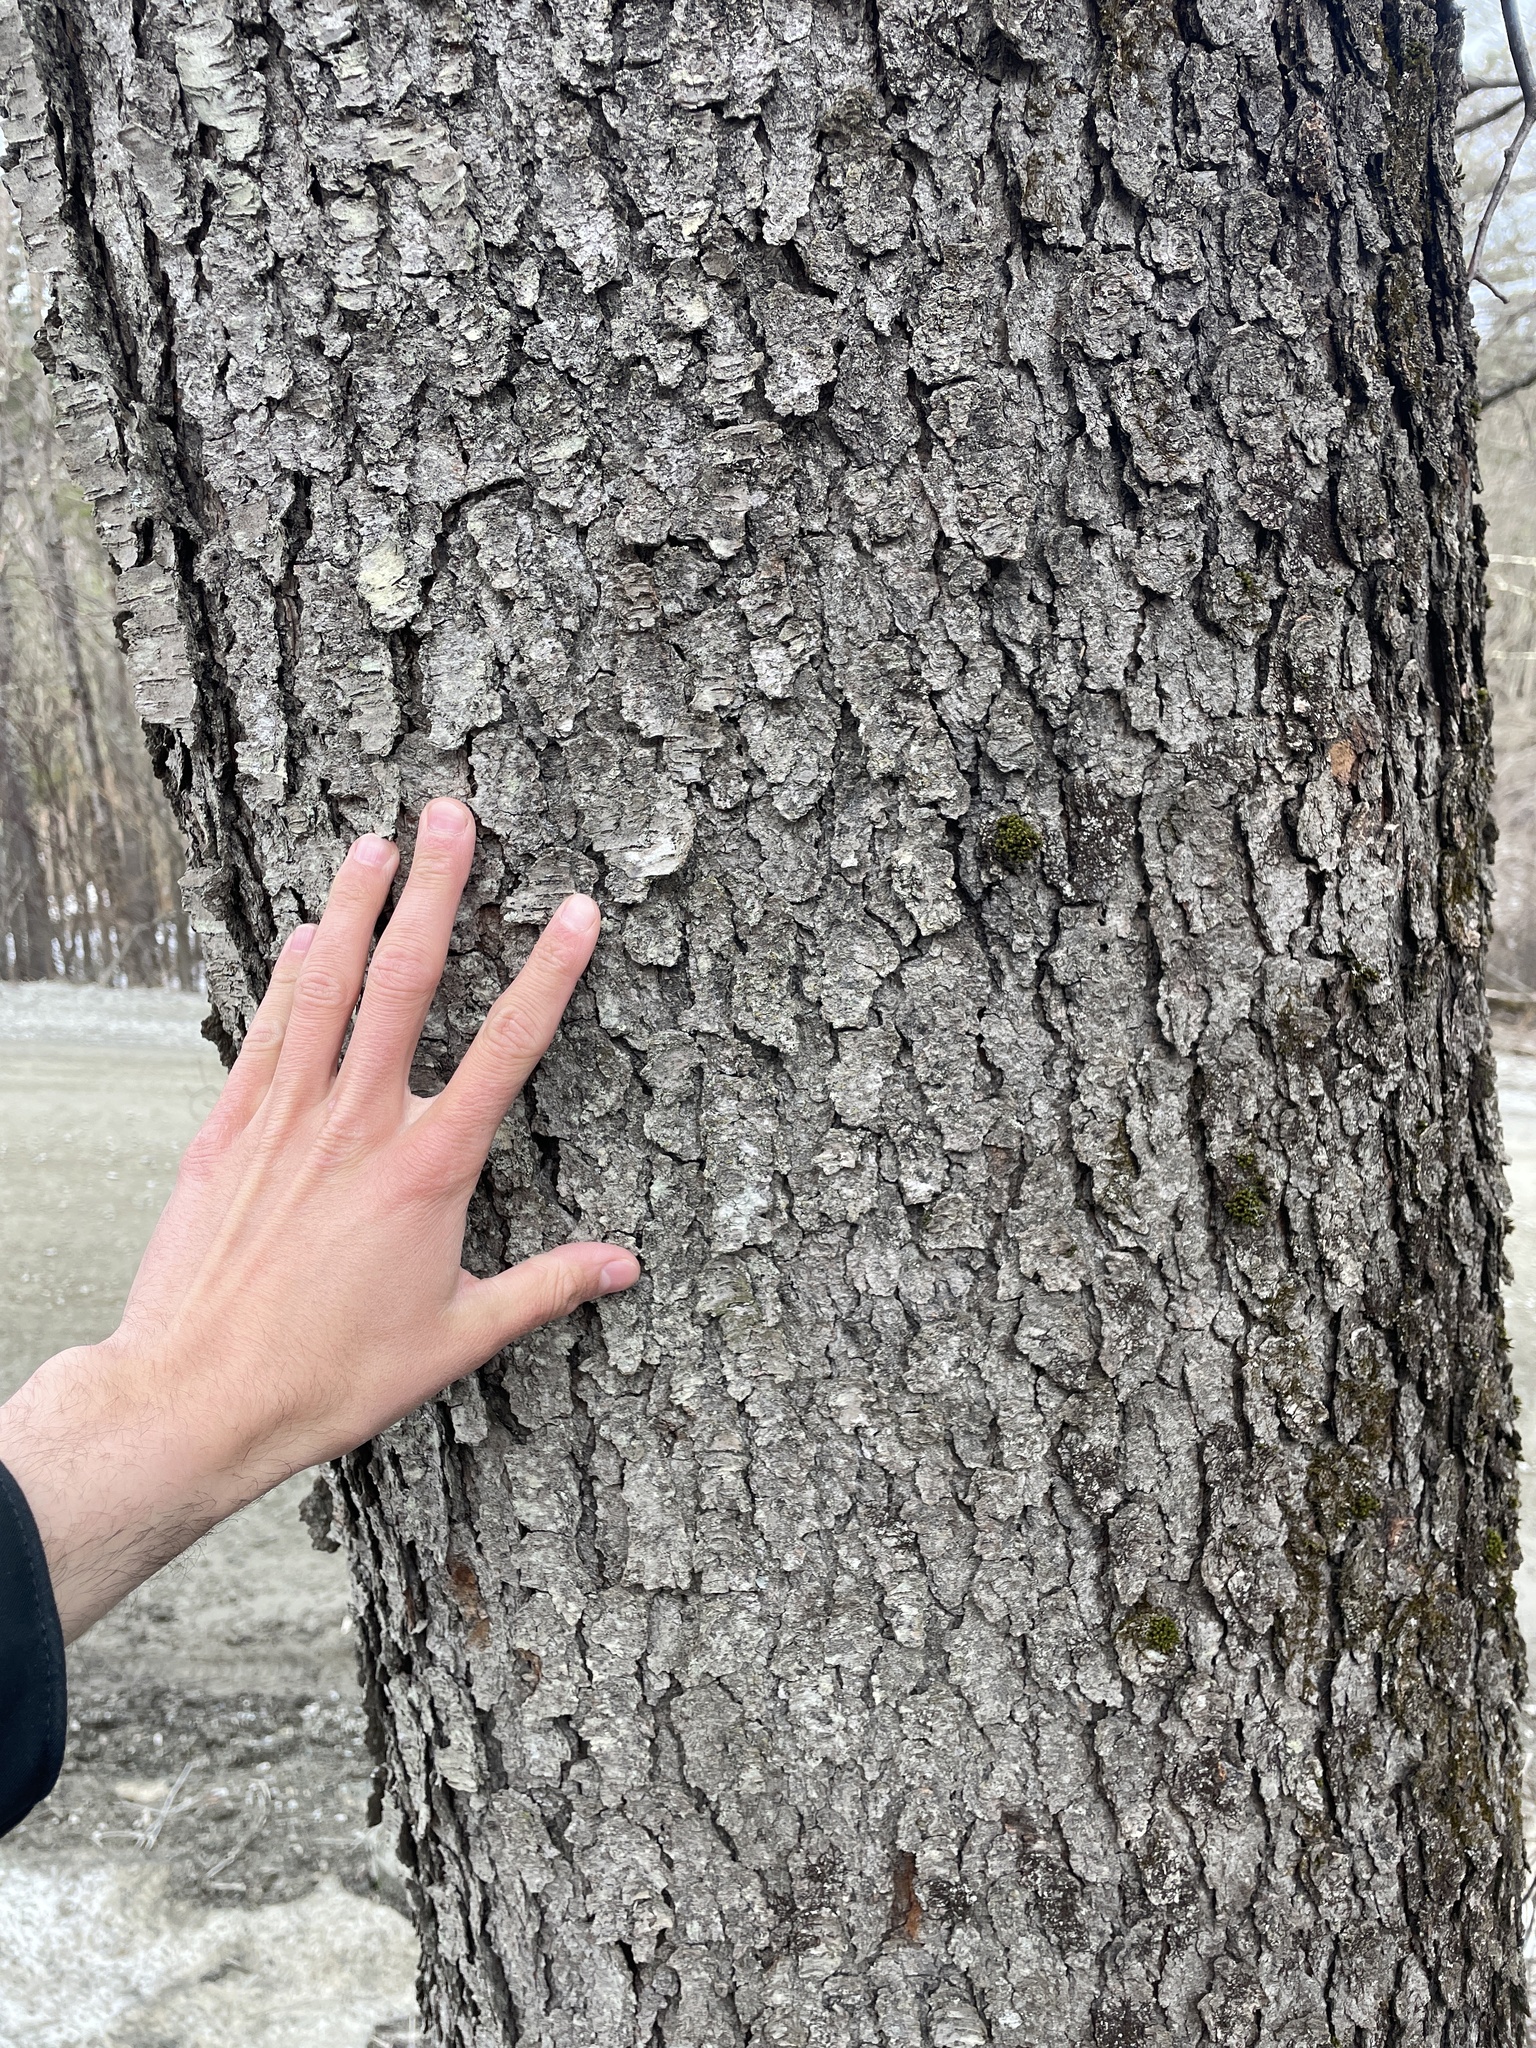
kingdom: Plantae
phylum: Tracheophyta
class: Magnoliopsida
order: Rosales
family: Rosaceae
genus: Prunus
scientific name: Prunus serotina
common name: Black cherry
